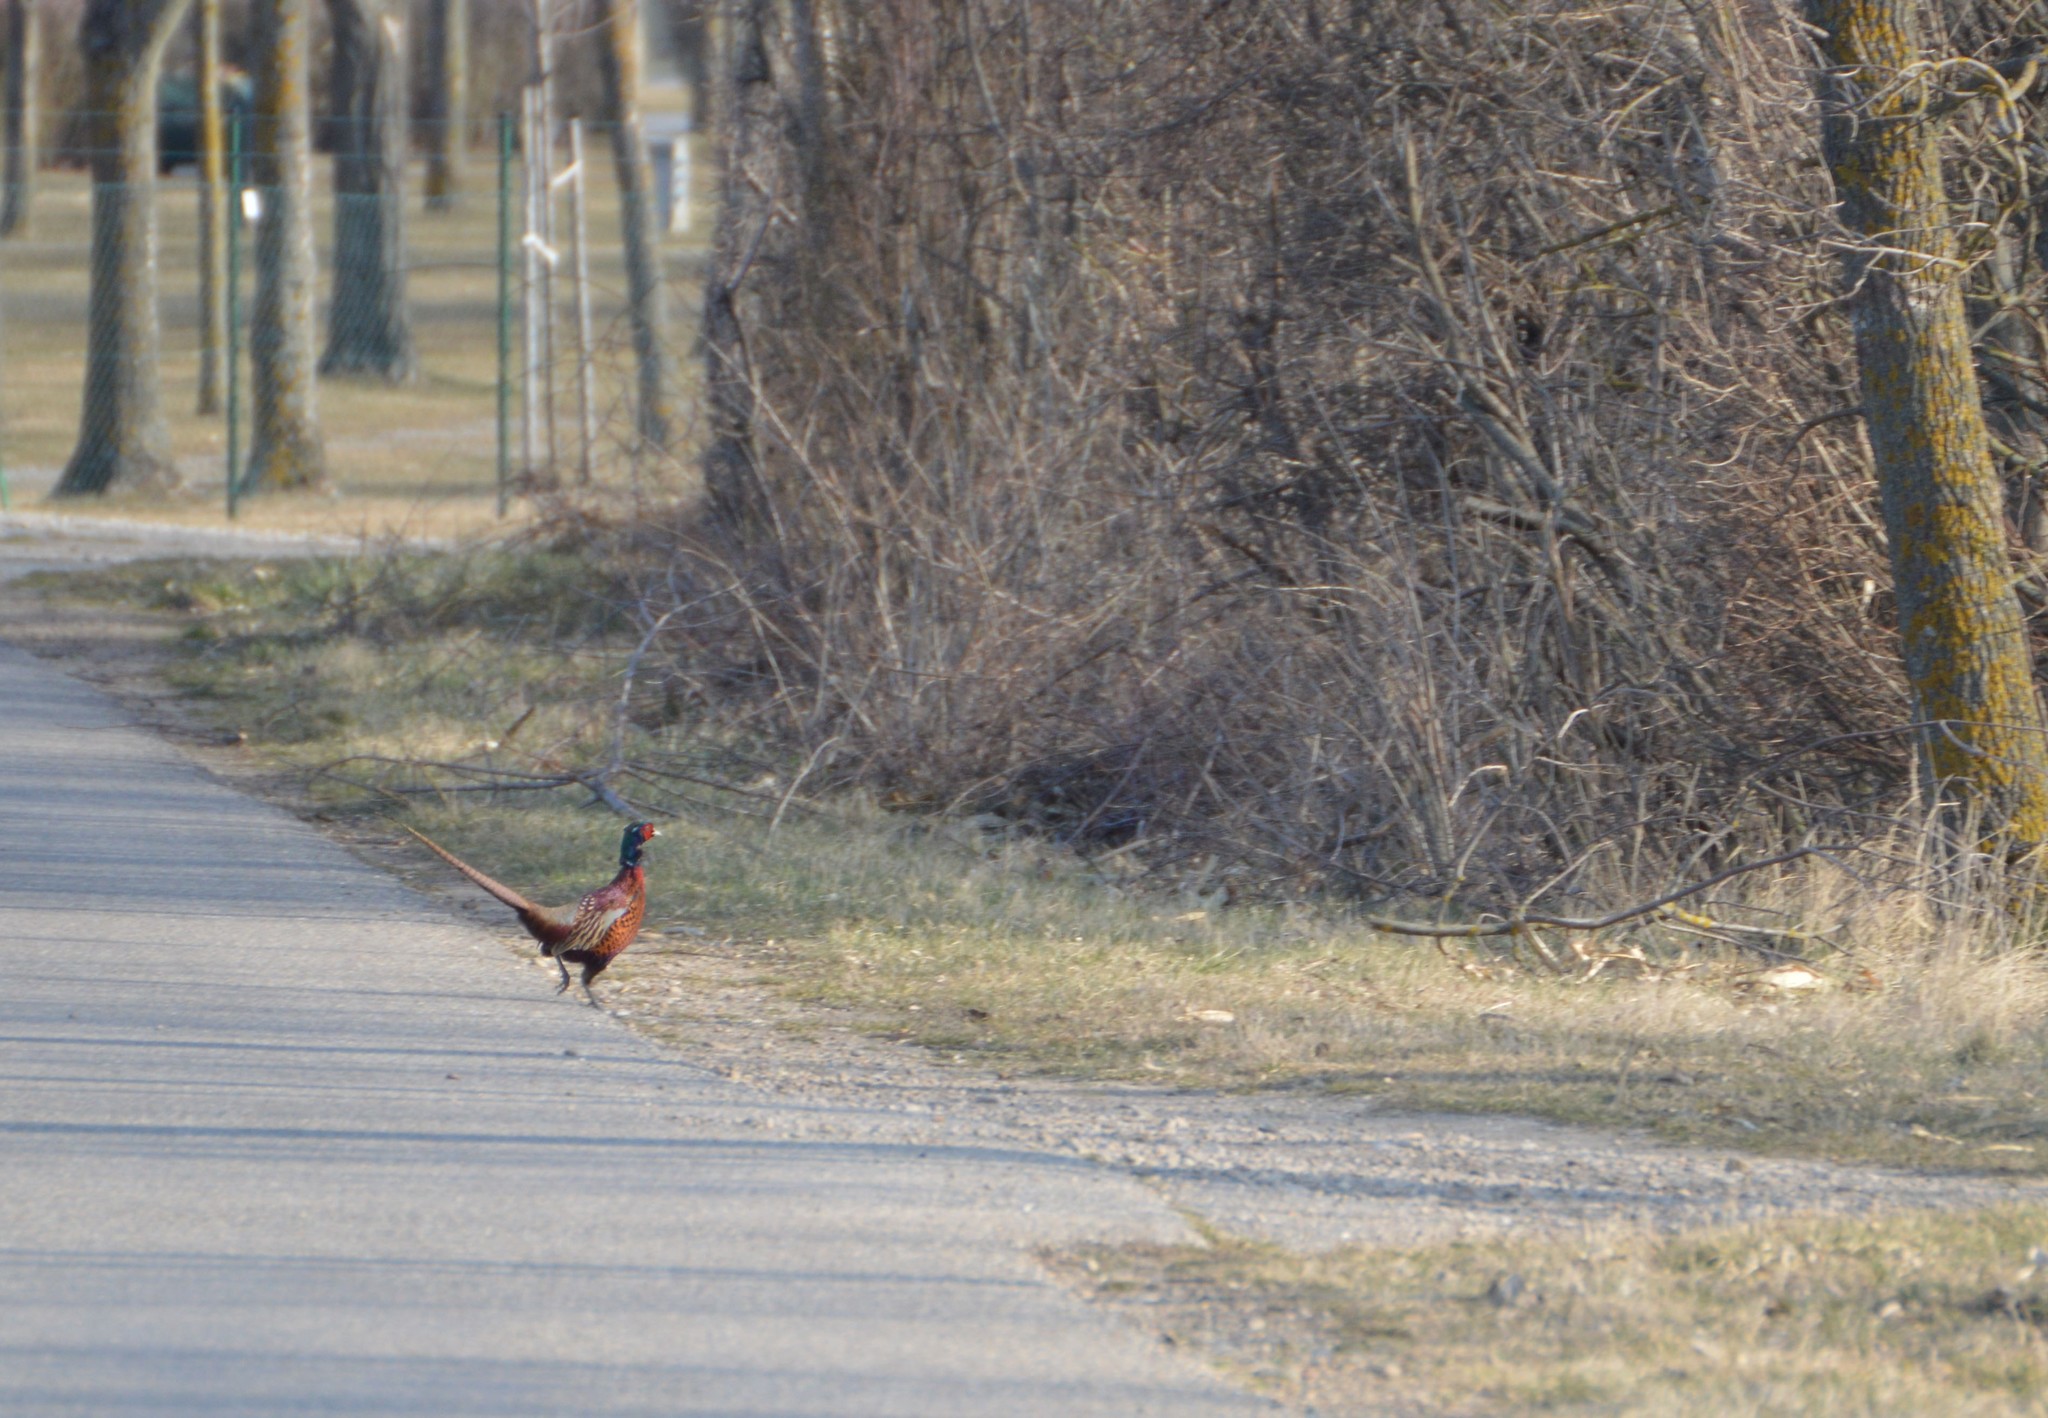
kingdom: Animalia
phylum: Chordata
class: Aves
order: Galliformes
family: Phasianidae
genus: Phasianus
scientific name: Phasianus colchicus
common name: Common pheasant
